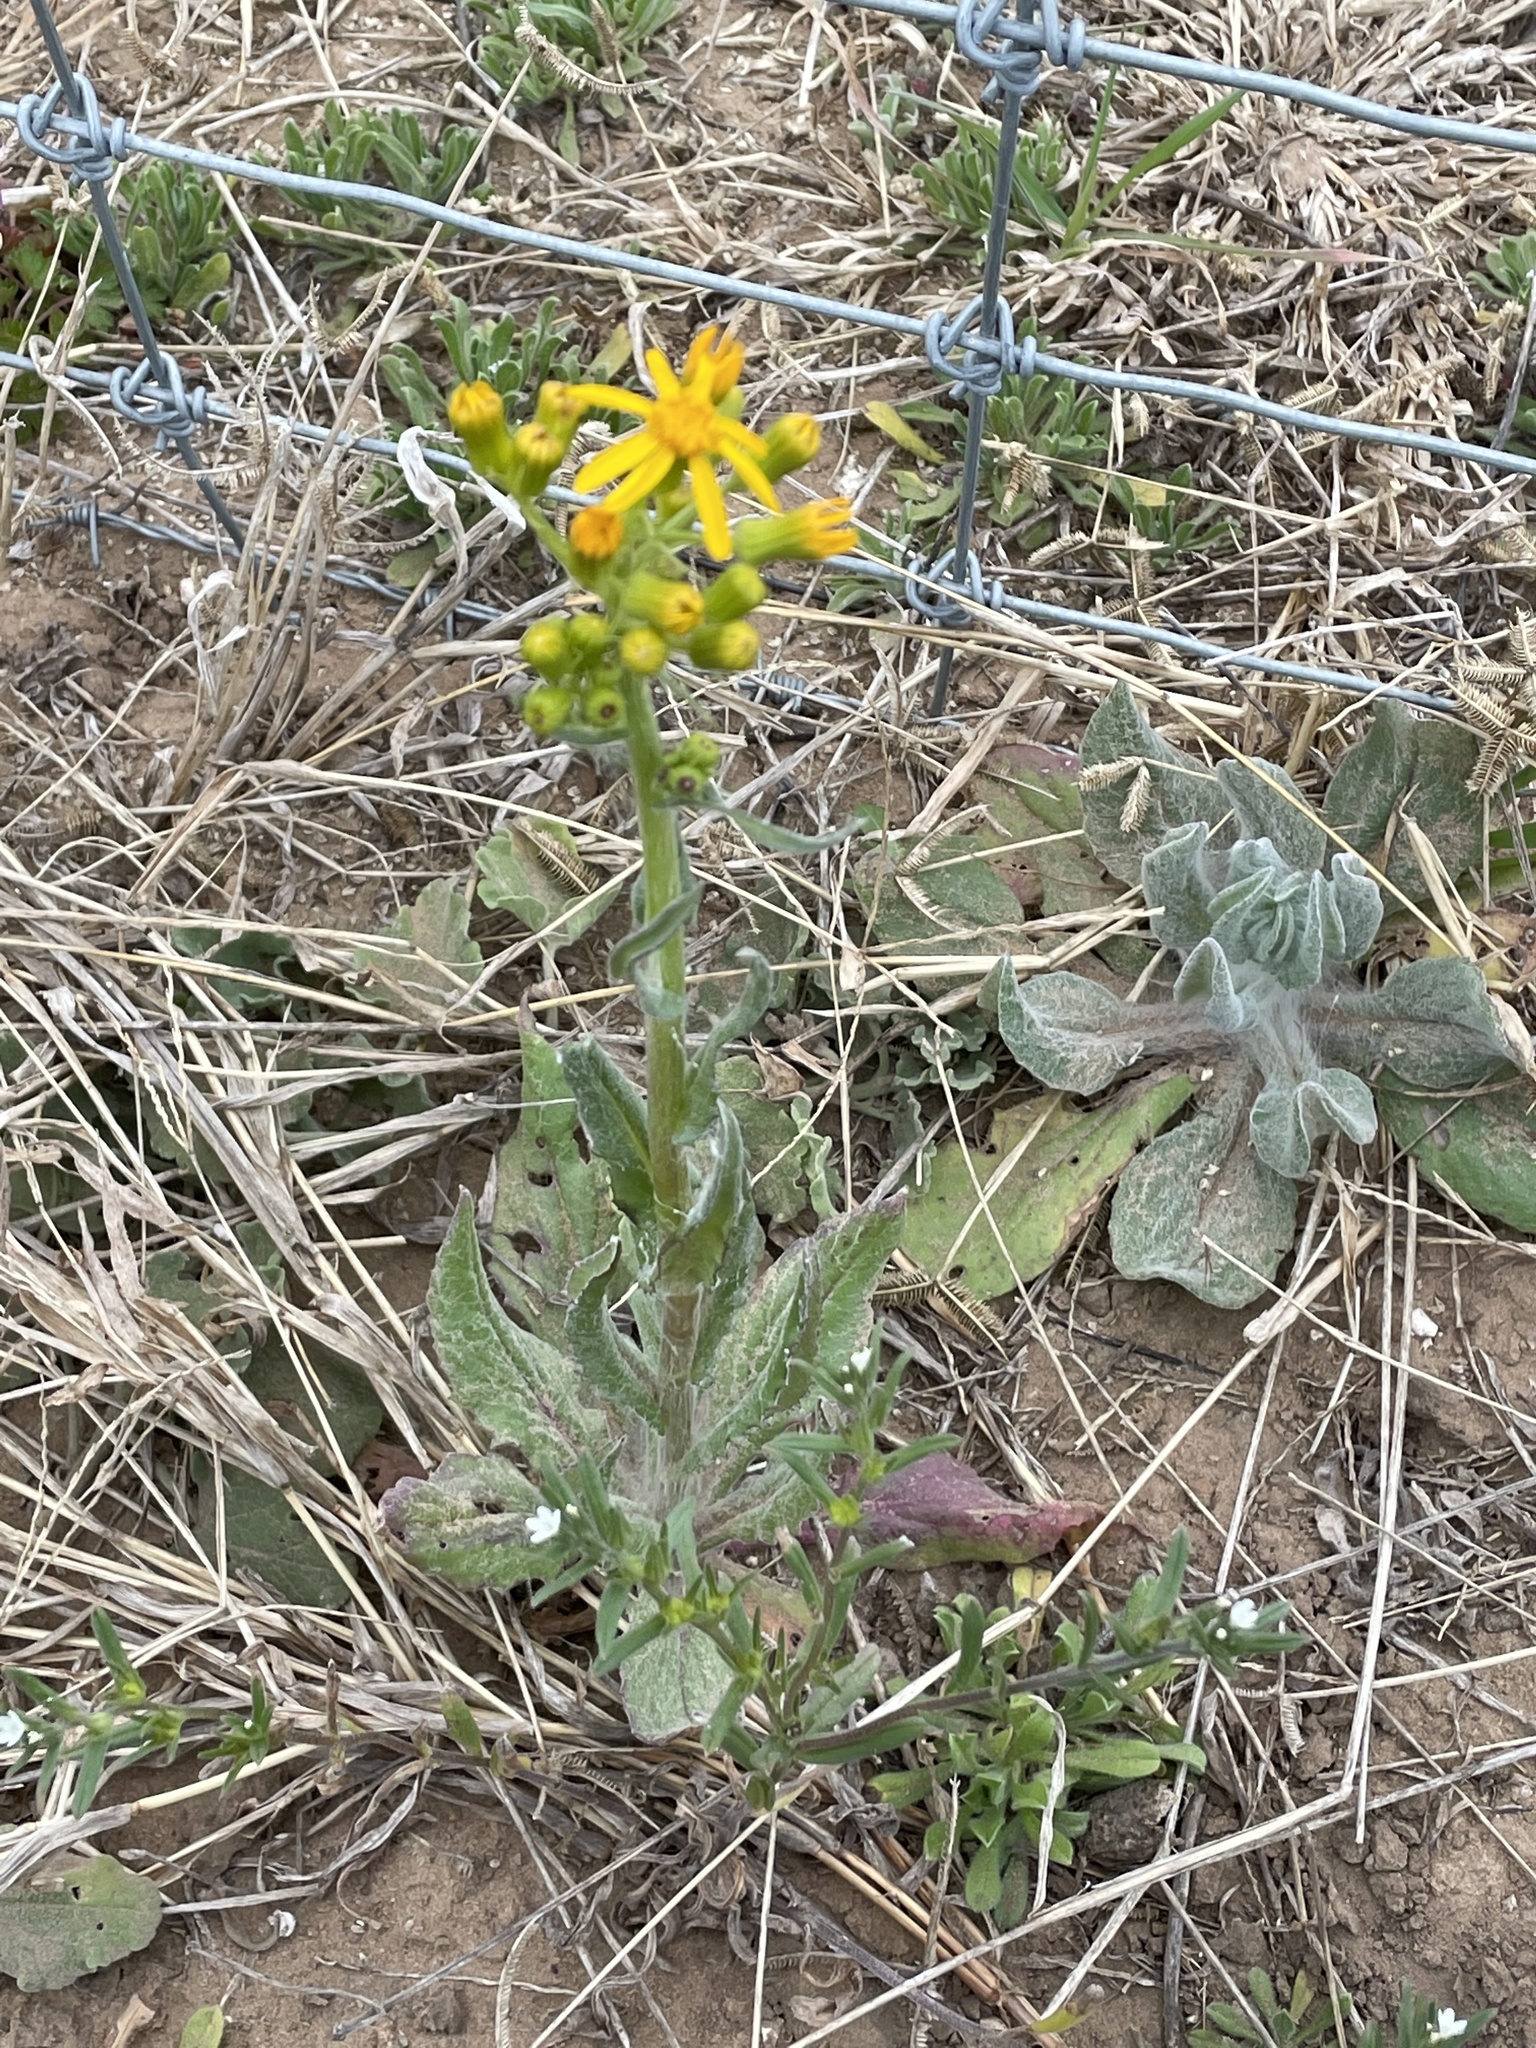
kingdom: Plantae
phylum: Tracheophyta
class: Magnoliopsida
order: Asterales
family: Asteraceae
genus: Senecio
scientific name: Senecio ampullaceus
